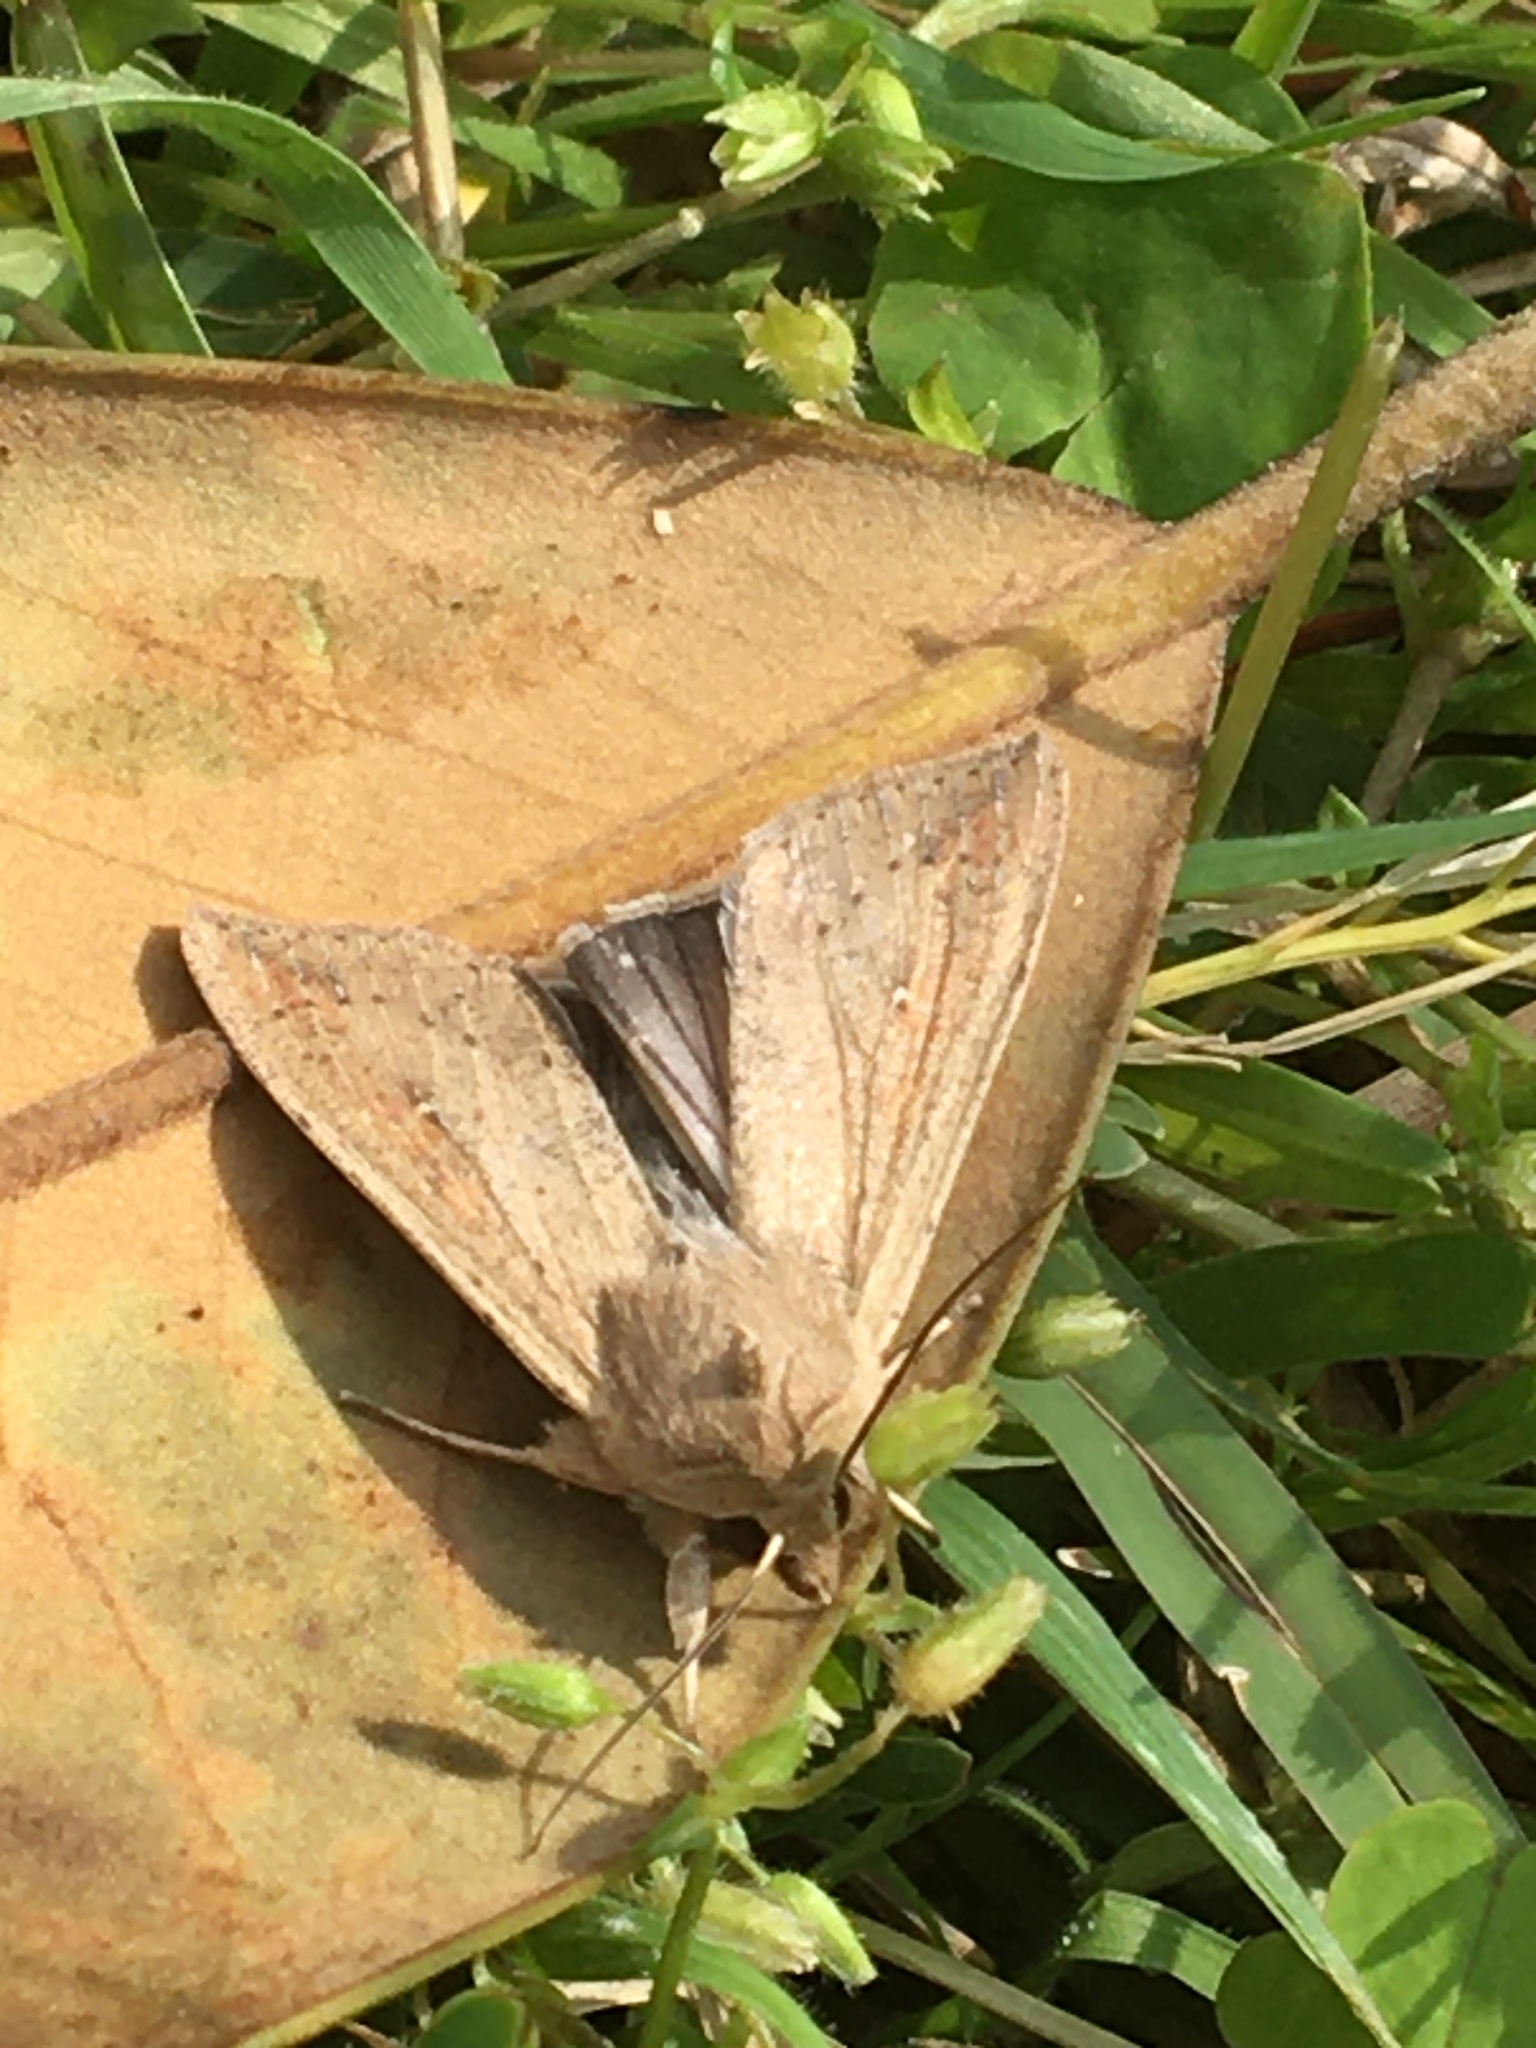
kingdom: Animalia
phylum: Arthropoda
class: Insecta
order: Lepidoptera
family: Noctuidae
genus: Mythimna
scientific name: Mythimna unipuncta
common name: White-speck
